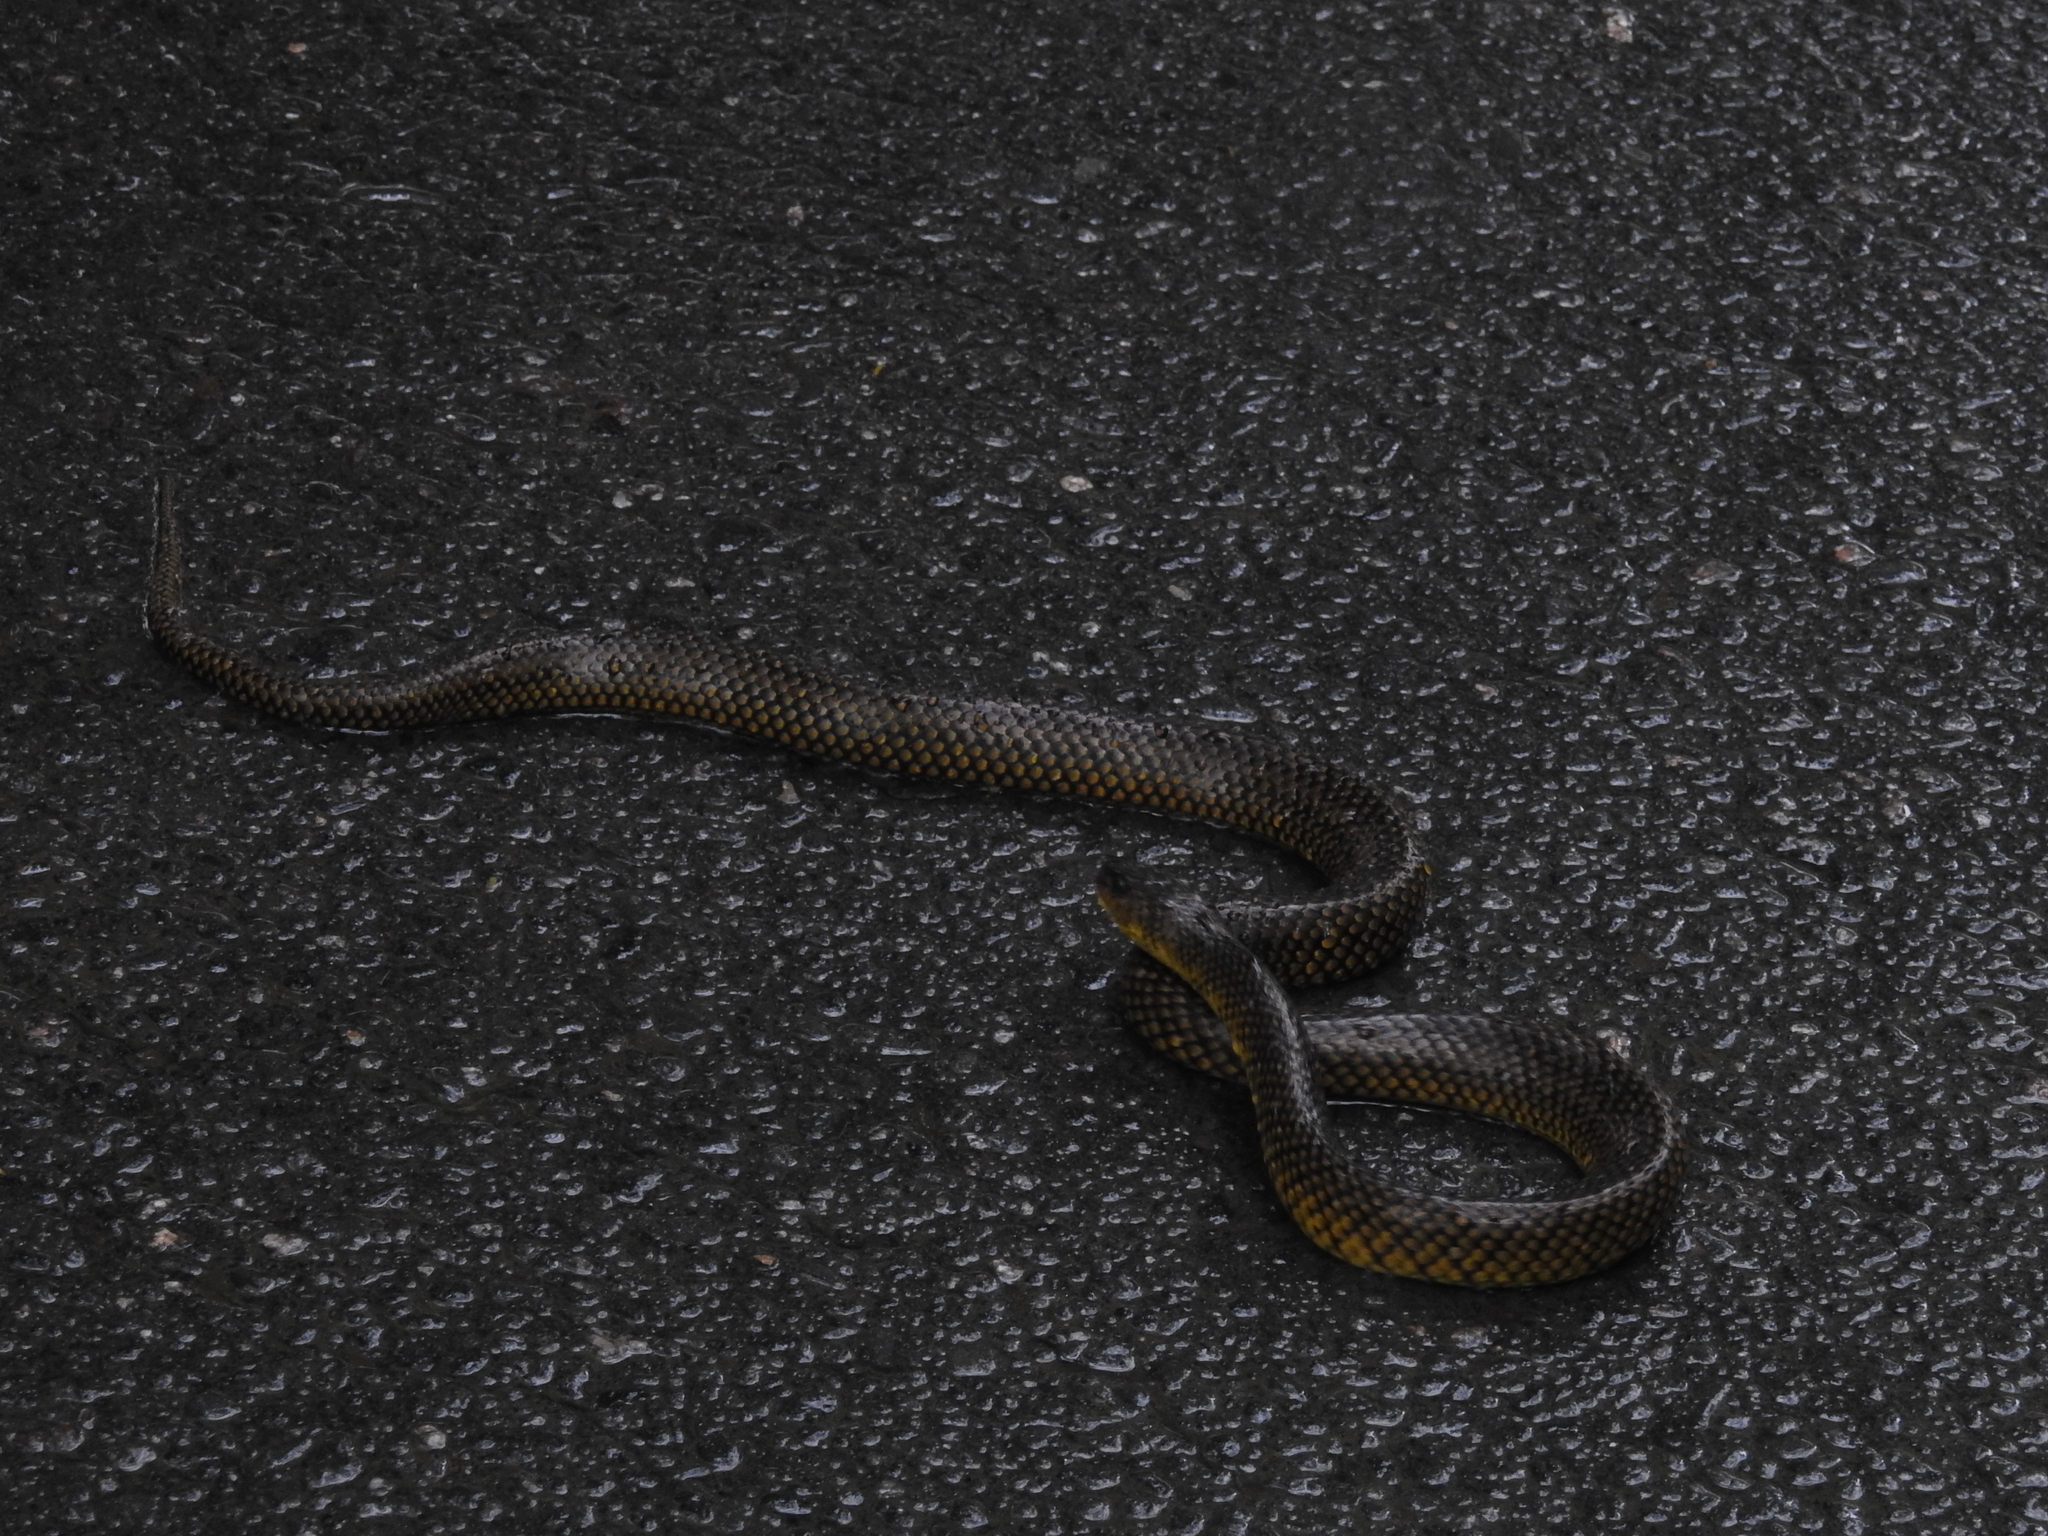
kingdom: Animalia
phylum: Chordata
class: Squamata
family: Colubridae
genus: Erythrolamprus
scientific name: Erythrolamprus miliaris
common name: Military ground snake
